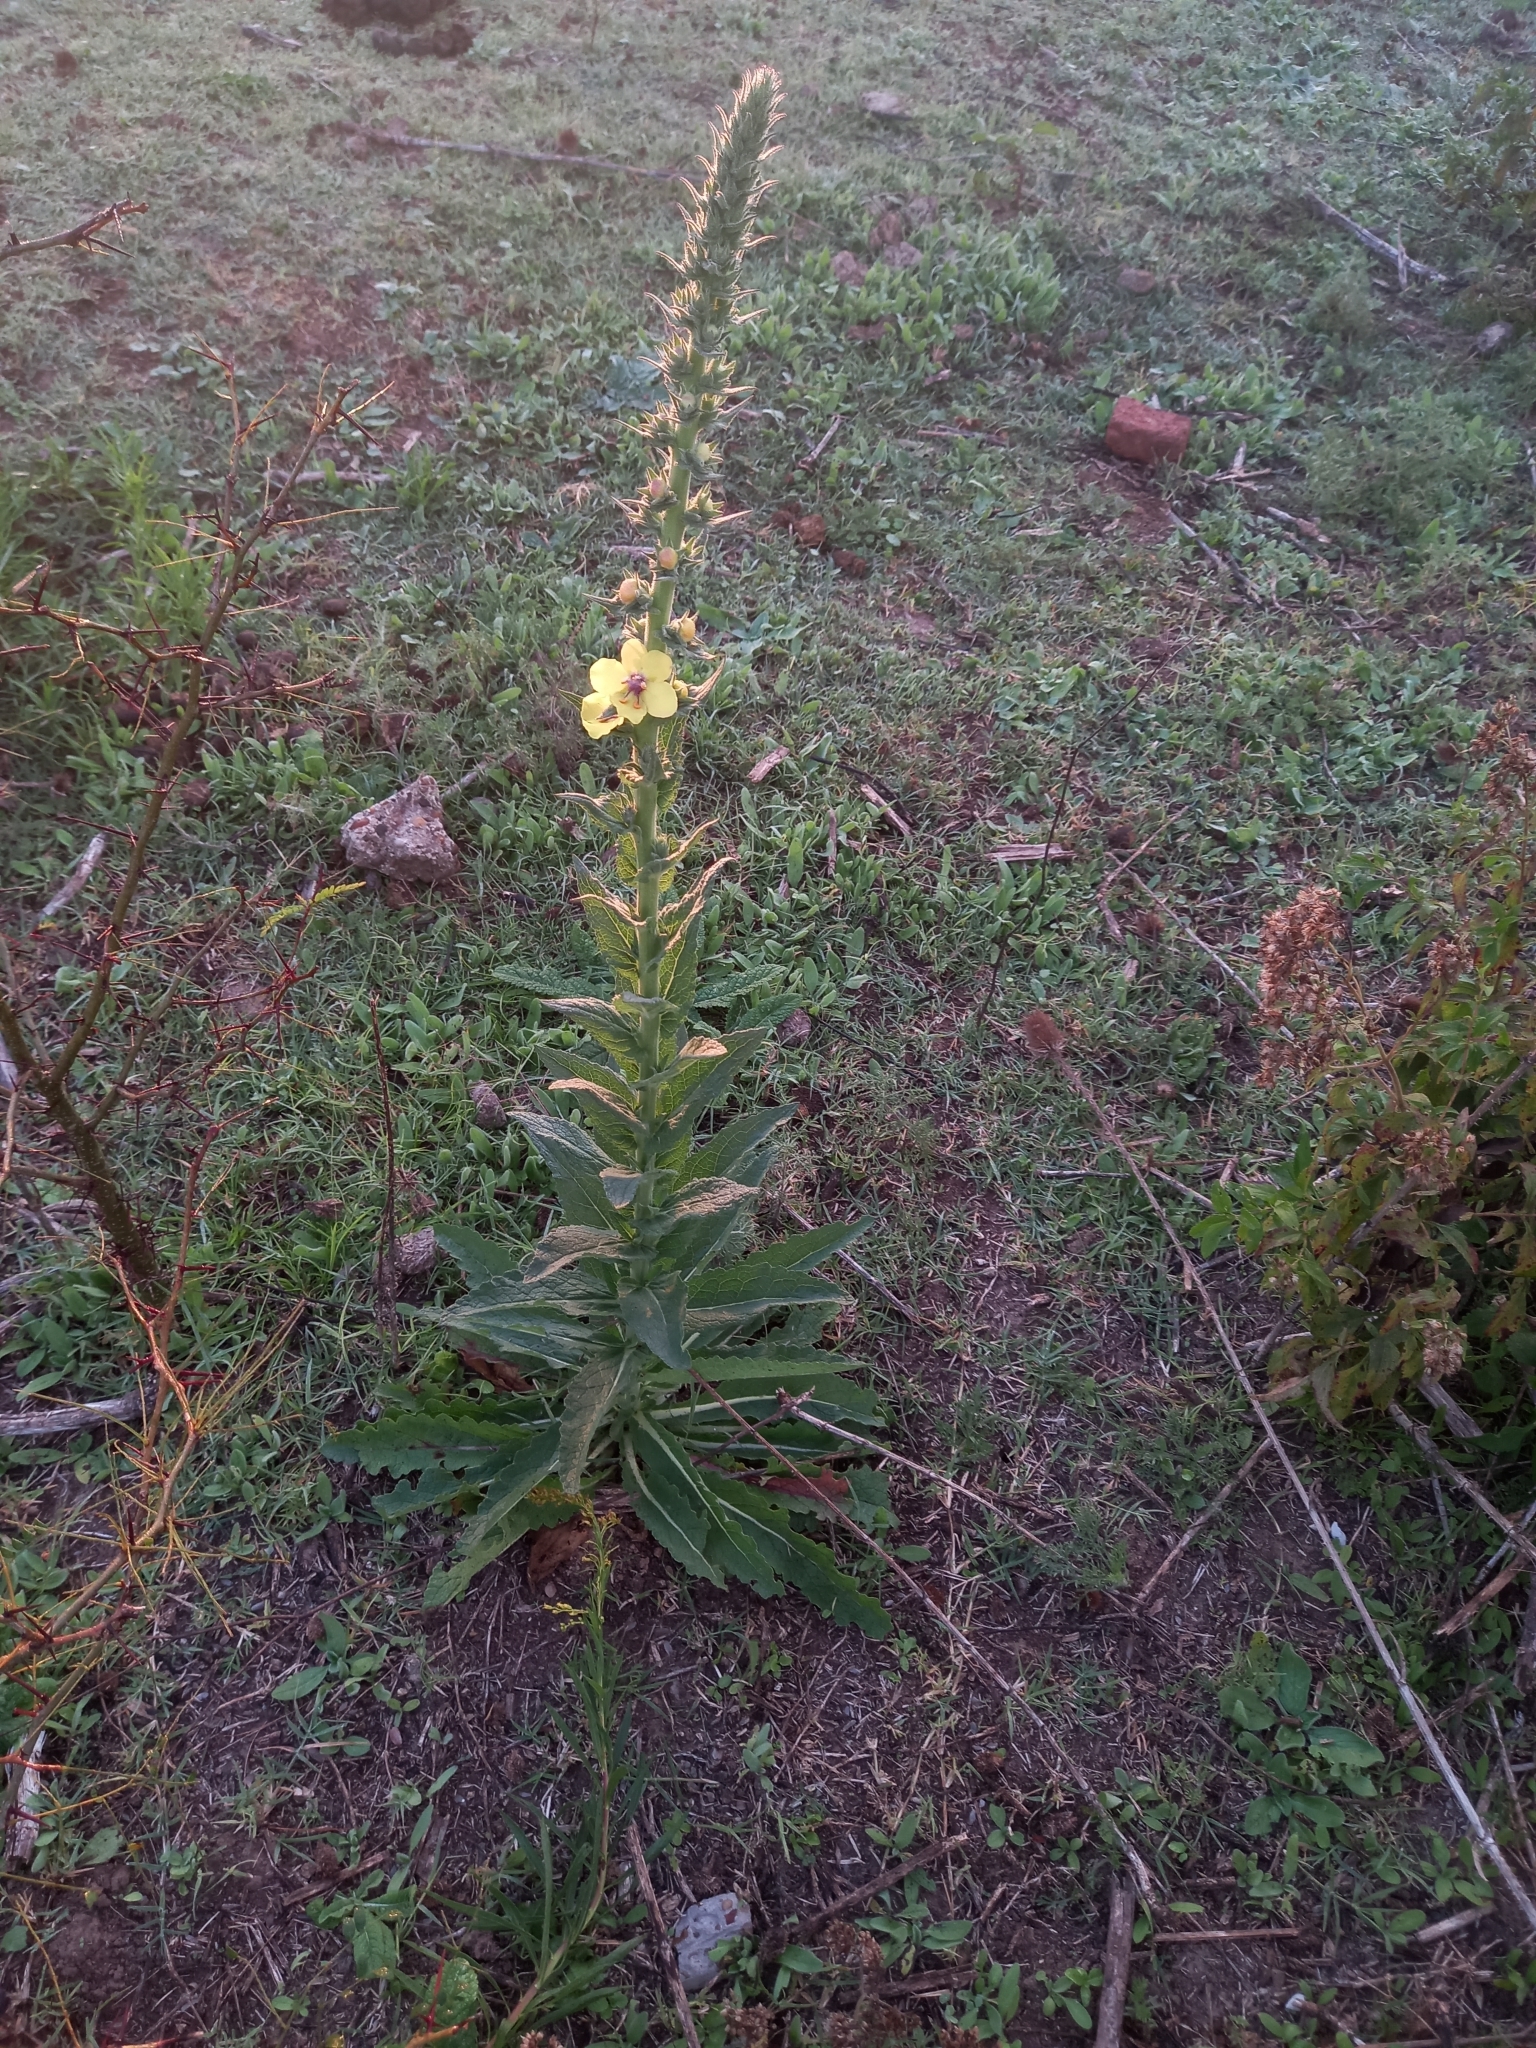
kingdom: Plantae
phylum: Tracheophyta
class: Magnoliopsida
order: Lamiales
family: Scrophulariaceae
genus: Verbascum
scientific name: Verbascum virgatum
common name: Twiggy mullein
